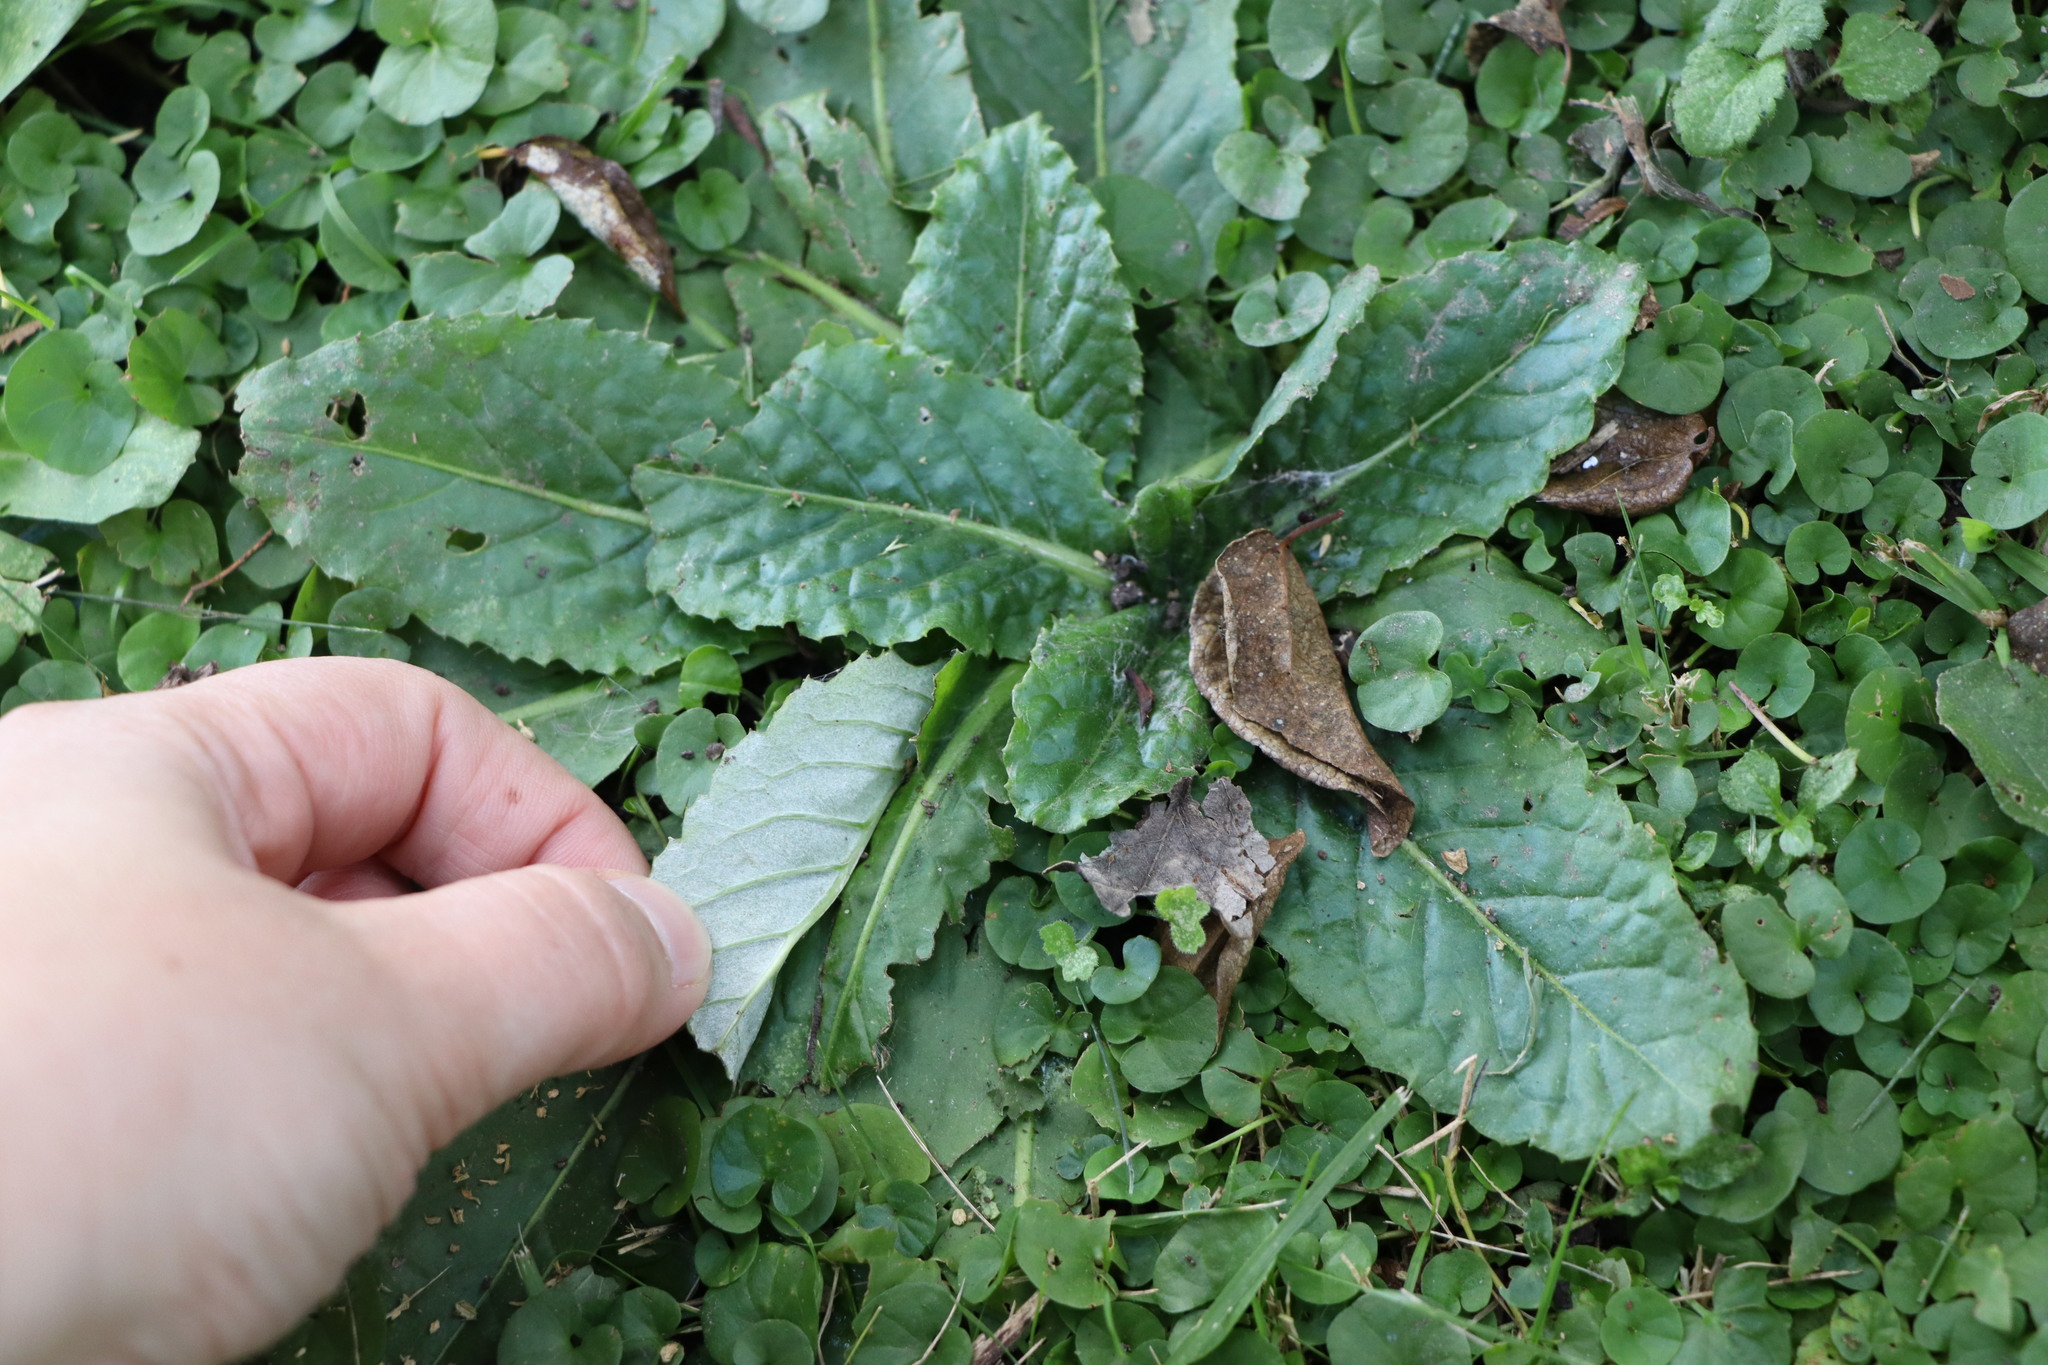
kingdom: Plantae
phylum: Tracheophyta
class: Magnoliopsida
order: Asterales
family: Asteraceae
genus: Chaptalia
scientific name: Chaptalia arechavaletae
